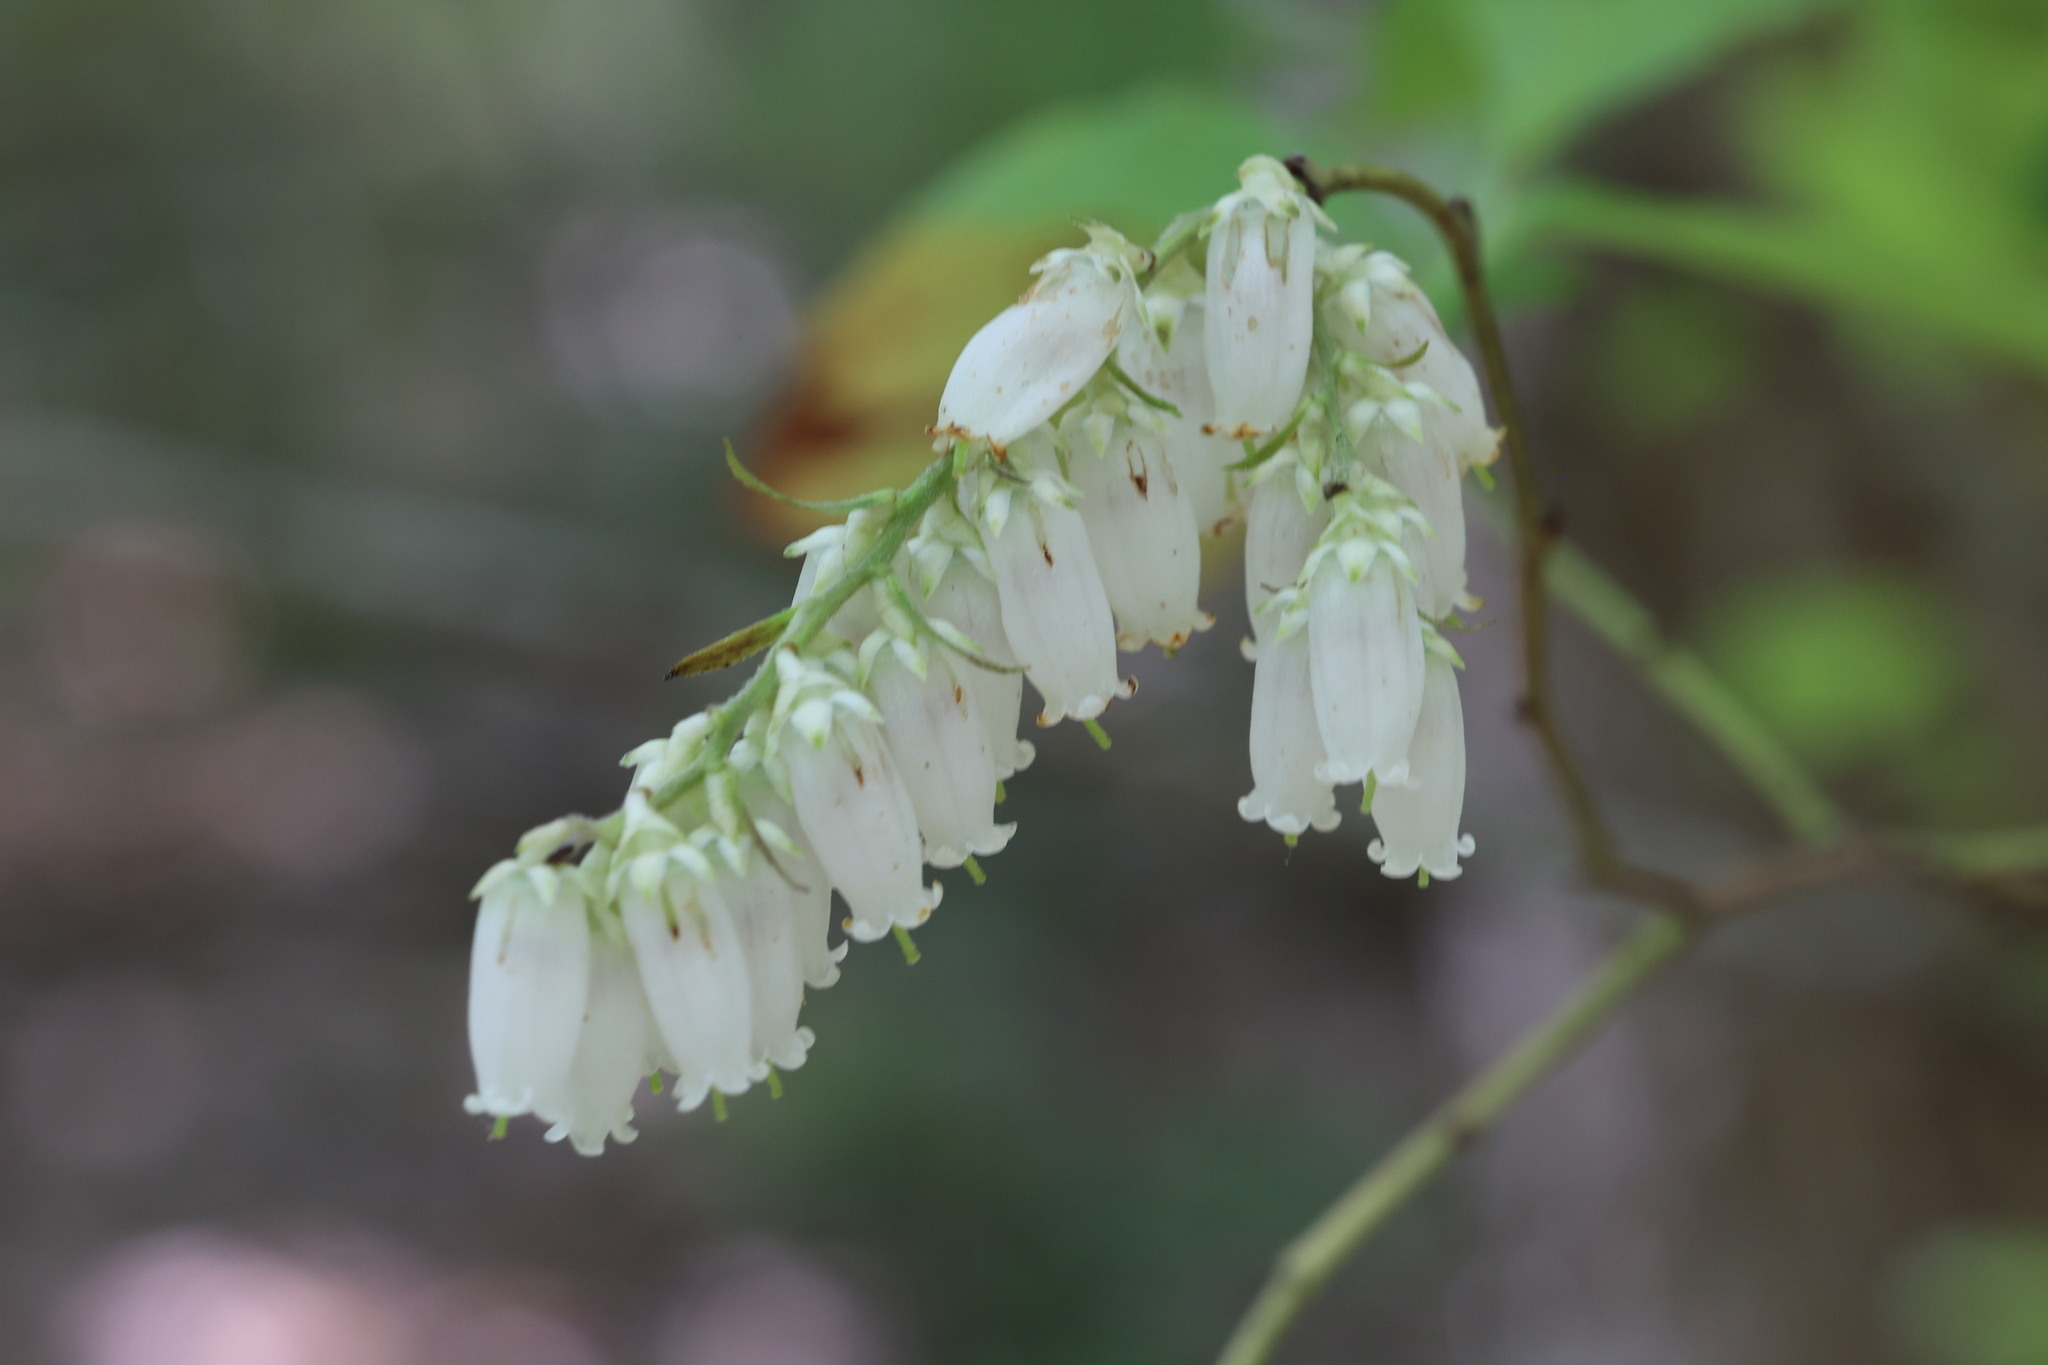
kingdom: Plantae
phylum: Tracheophyta
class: Magnoliopsida
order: Ericales
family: Ericaceae
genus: Eubotrys
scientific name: Eubotrys racemosa
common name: Fetterbush
